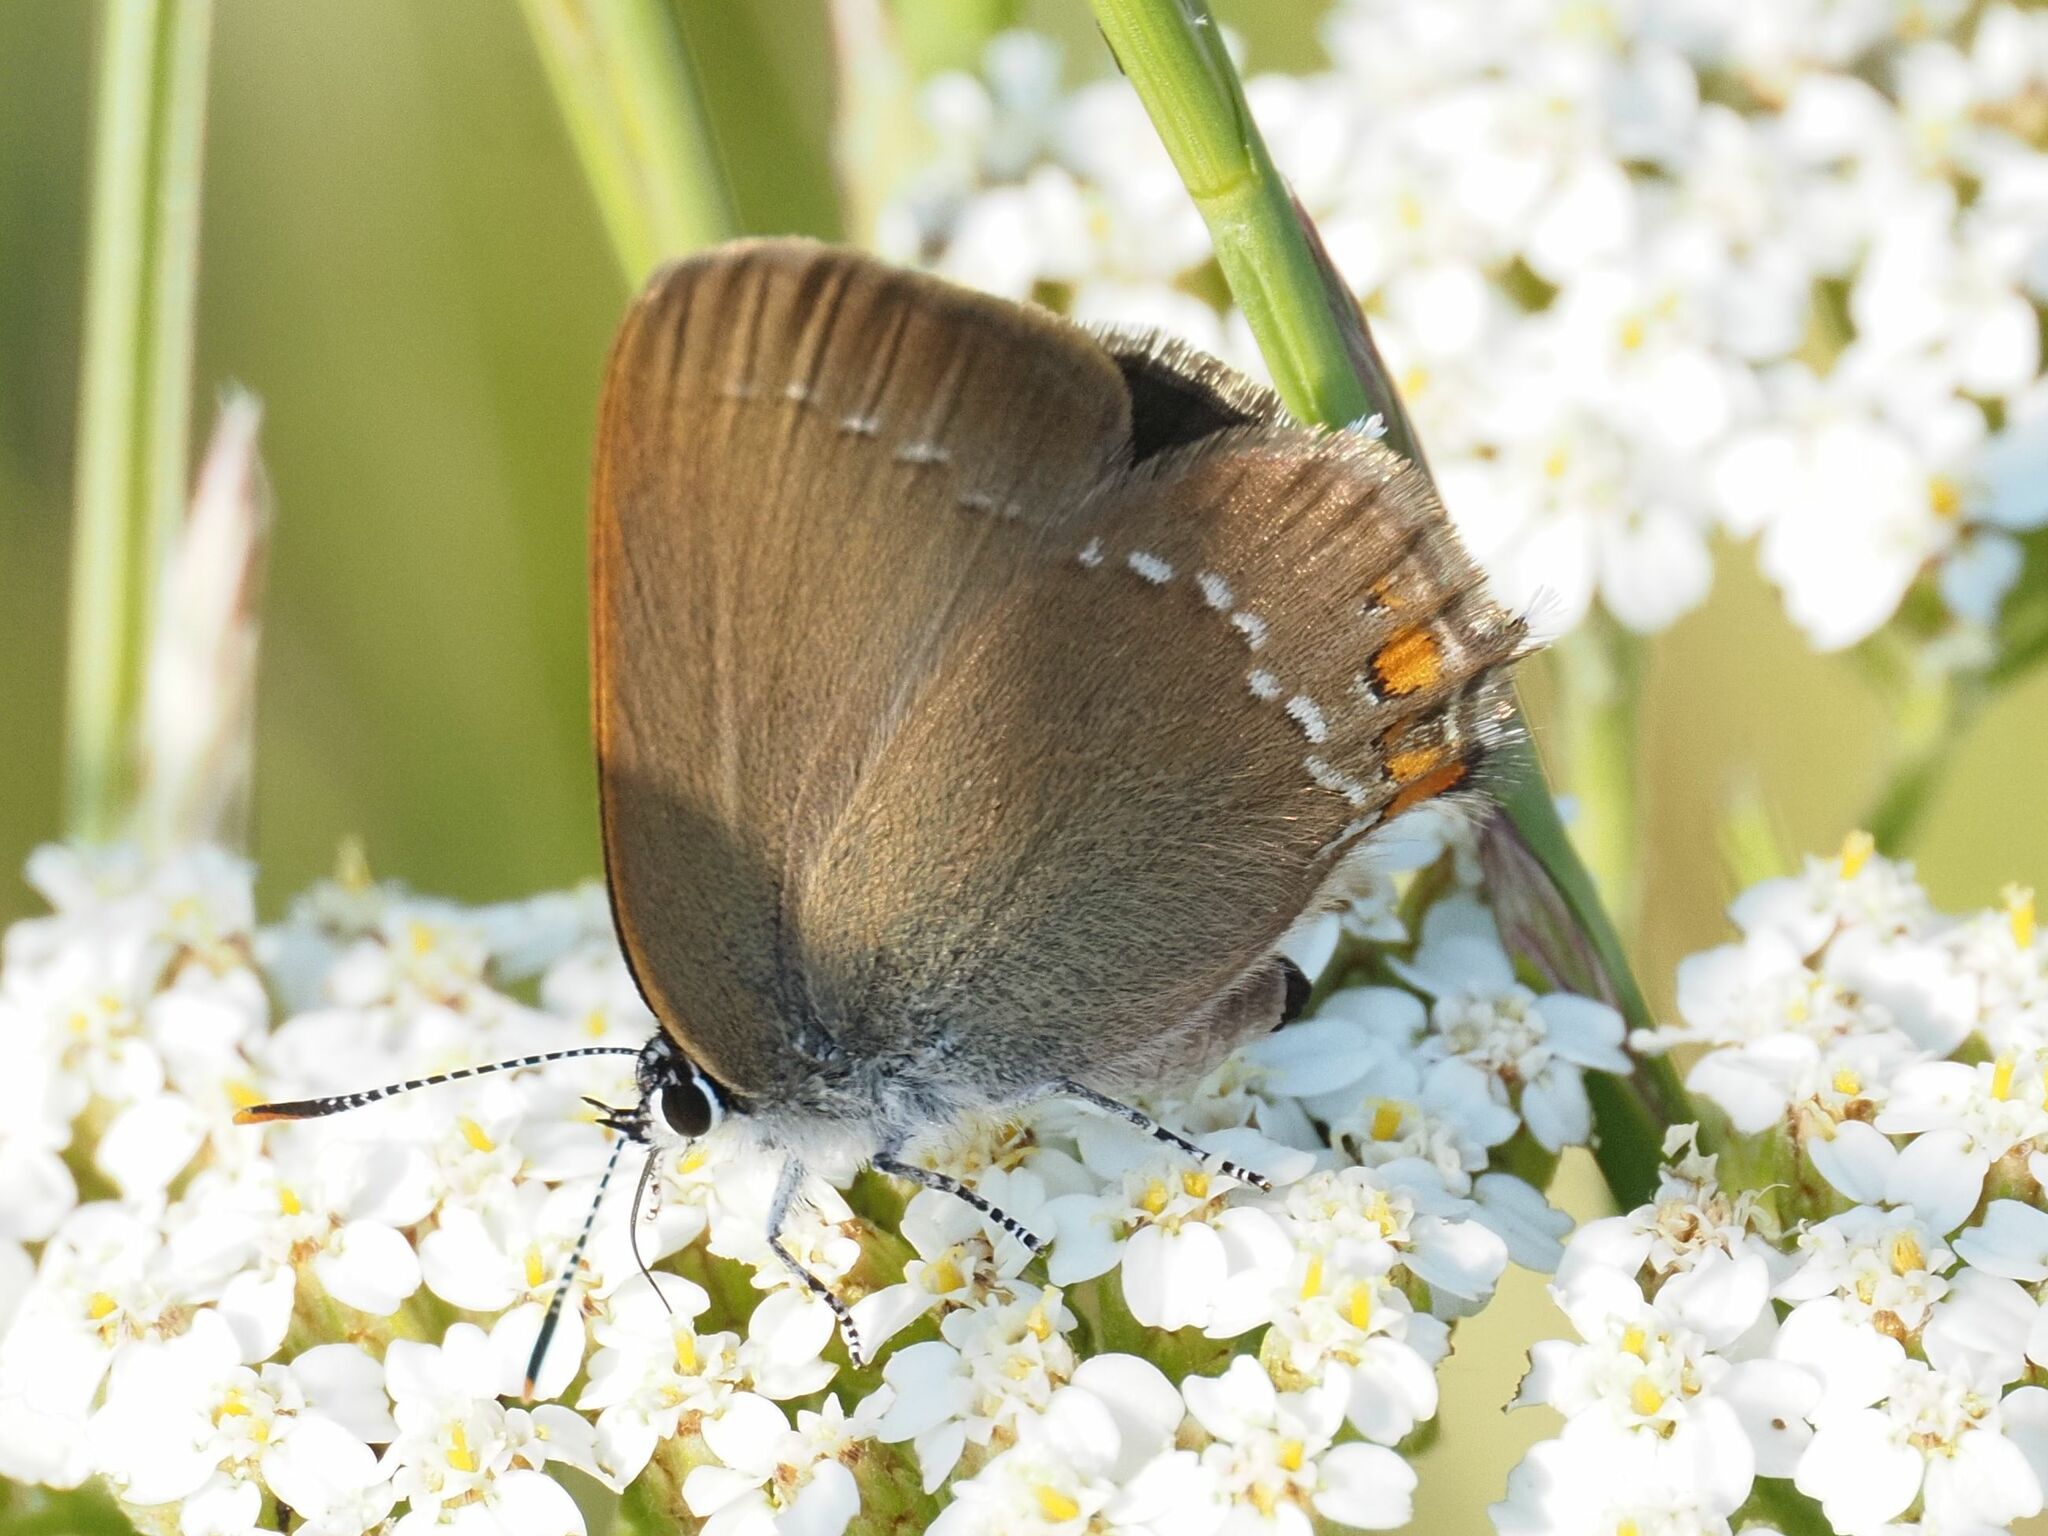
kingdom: Animalia
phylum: Arthropoda
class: Insecta
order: Lepidoptera
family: Lycaenidae
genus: Strymon
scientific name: Strymon acaciae
